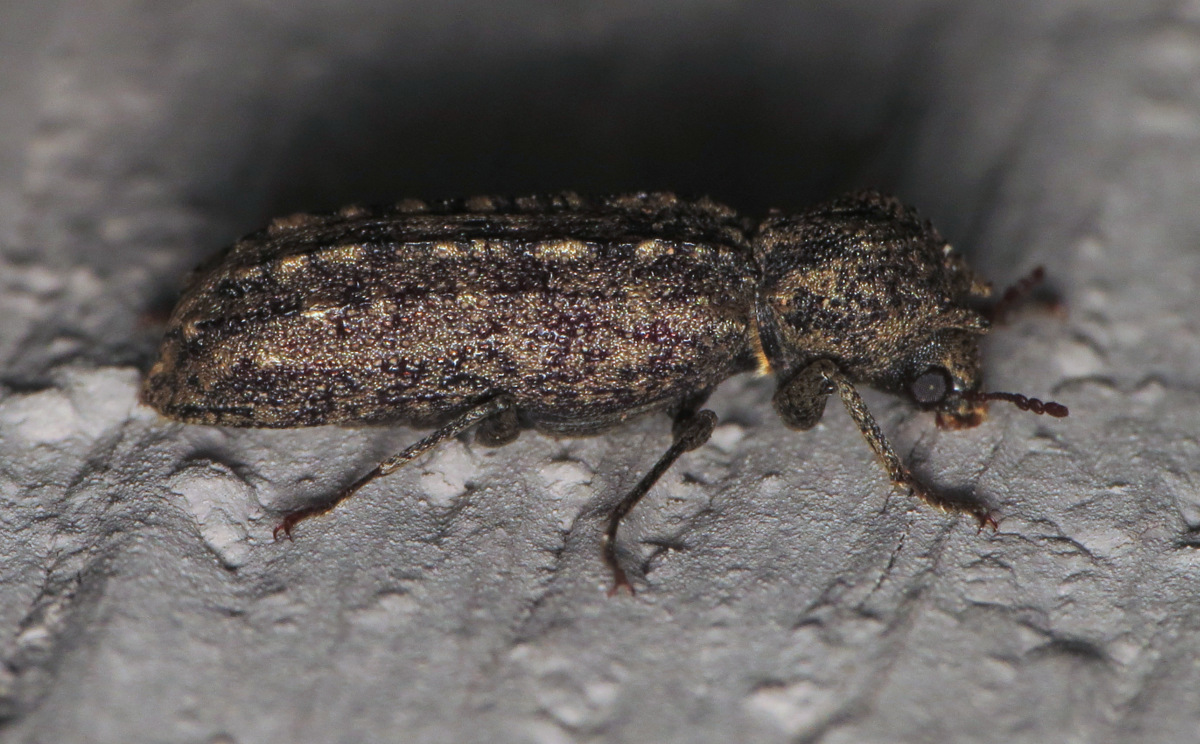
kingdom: Animalia
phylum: Arthropoda
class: Insecta
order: Coleoptera
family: Bostrichidae
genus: Lichenophanes
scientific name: Lichenophanes bicornis
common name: Two-horned powder-post beetle
